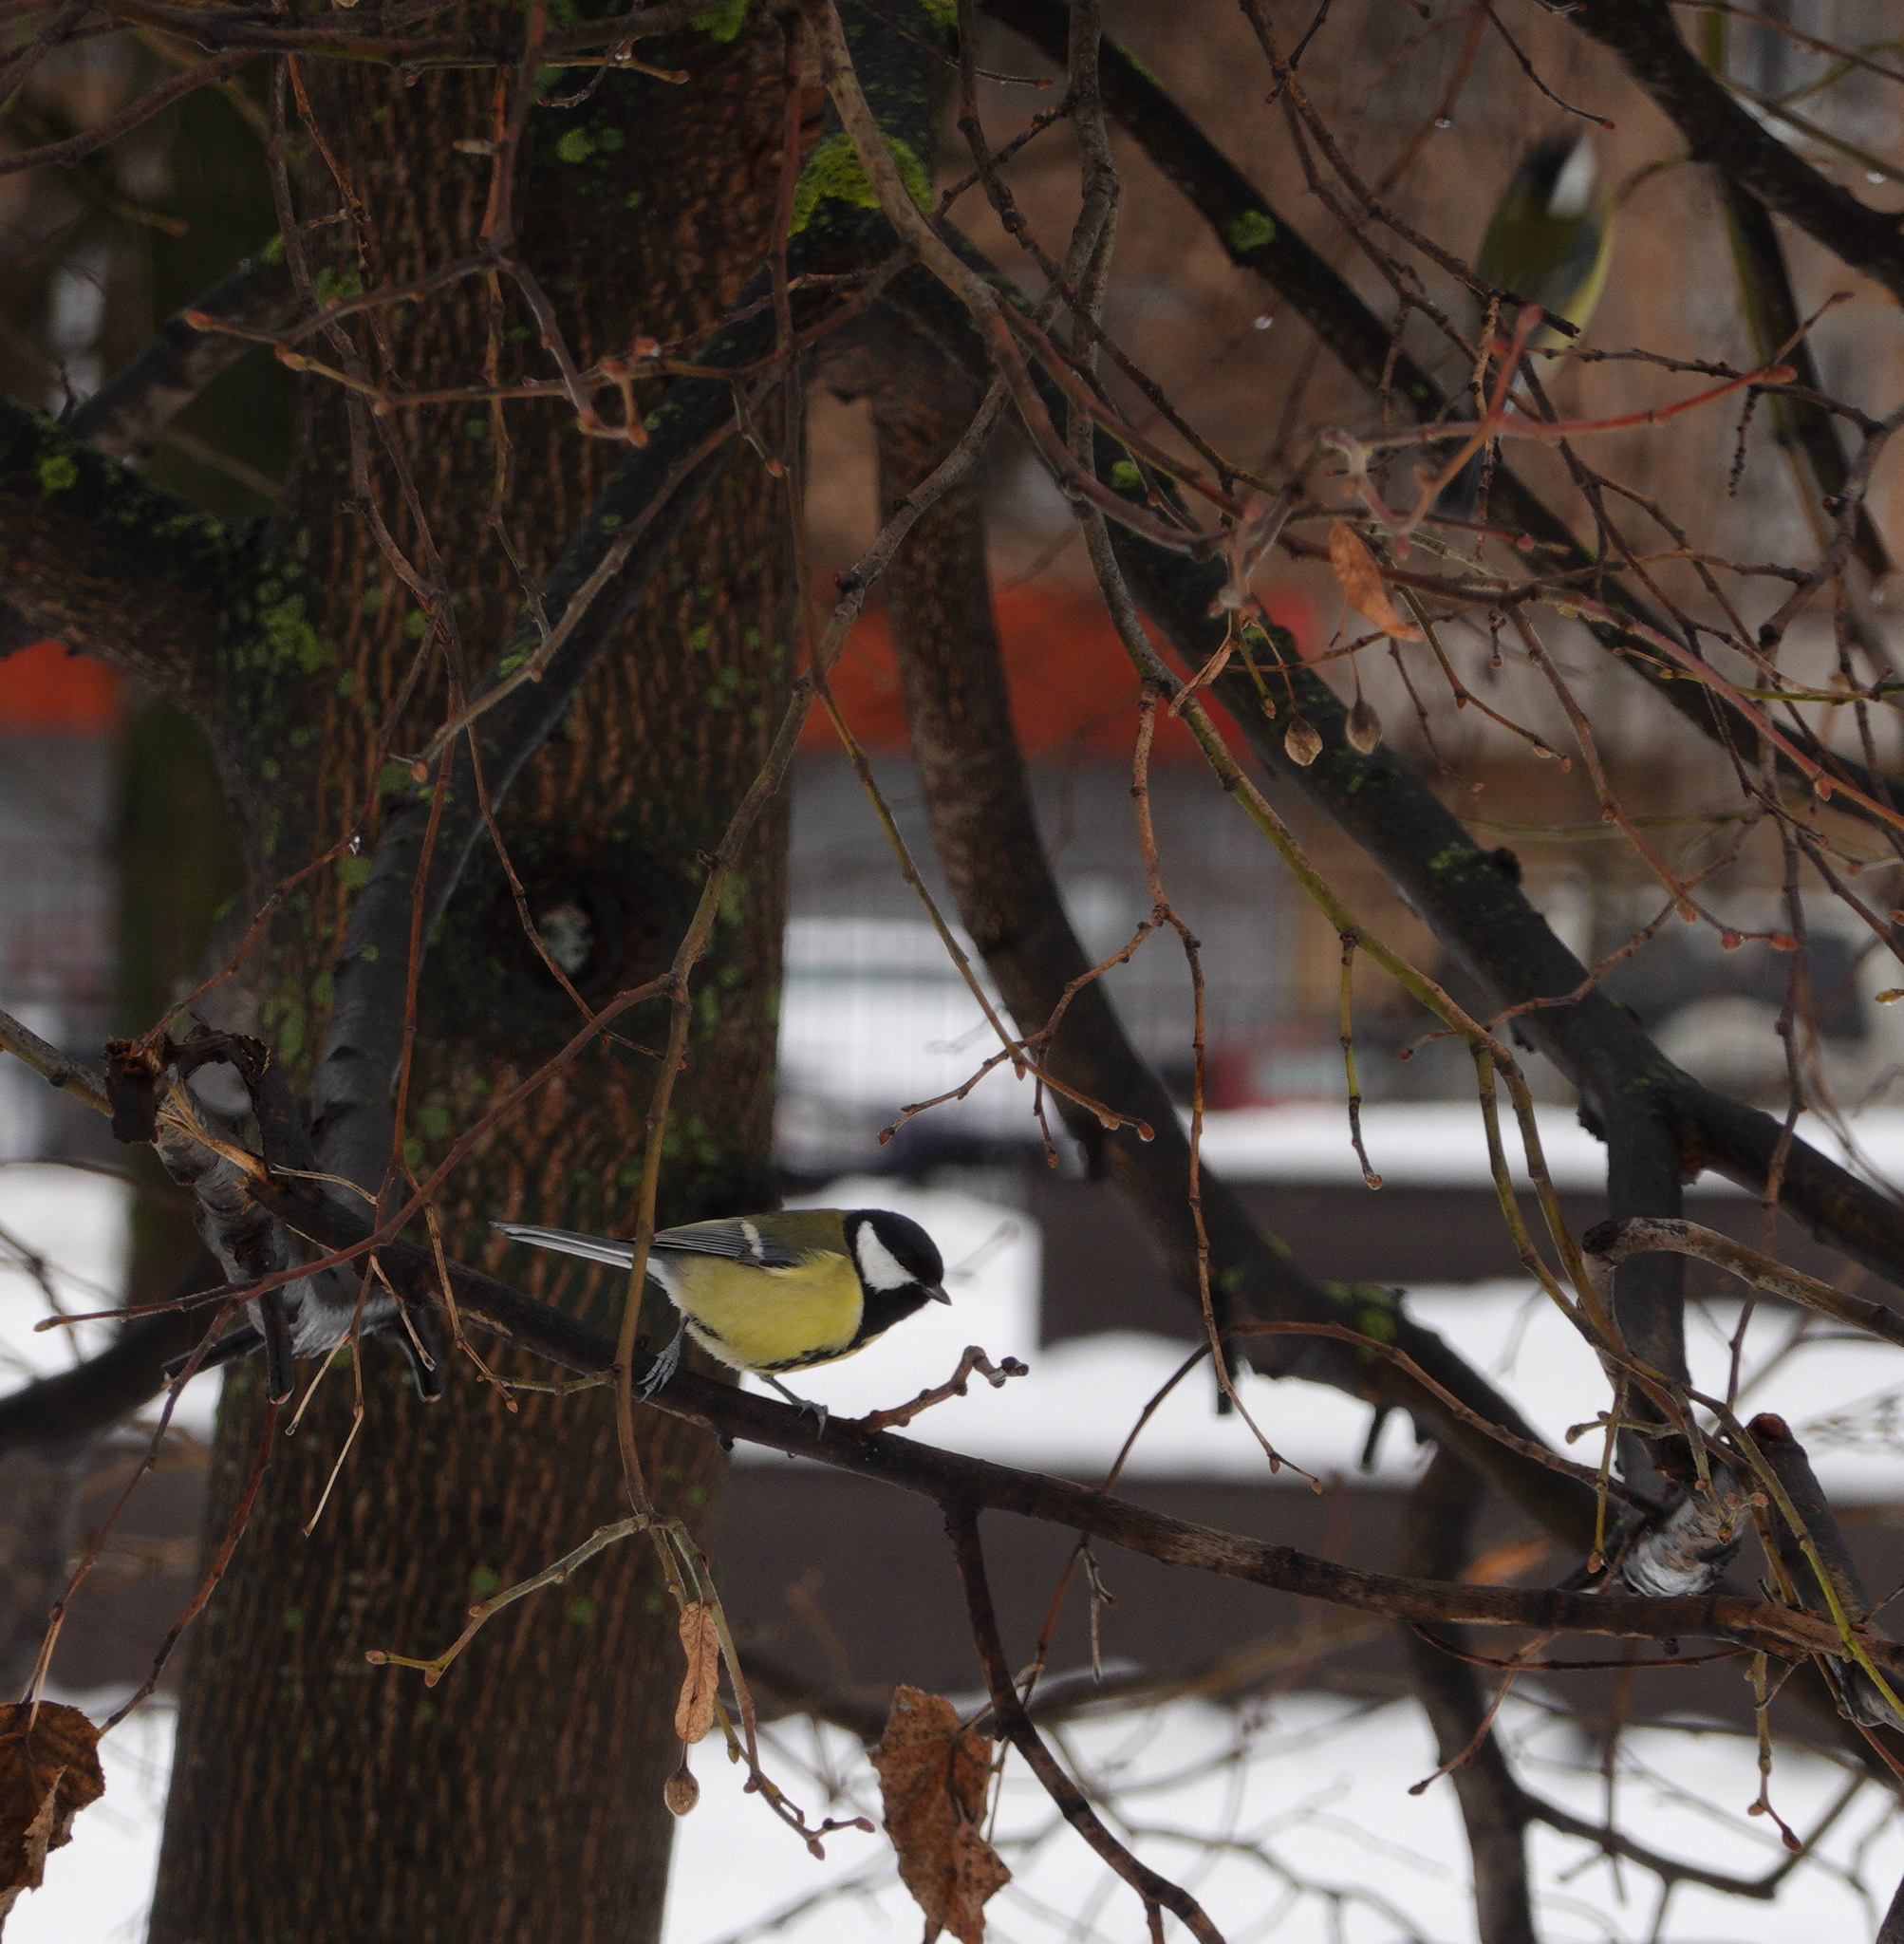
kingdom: Animalia
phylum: Chordata
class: Aves
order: Passeriformes
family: Paridae
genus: Parus
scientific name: Parus major
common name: Great tit
